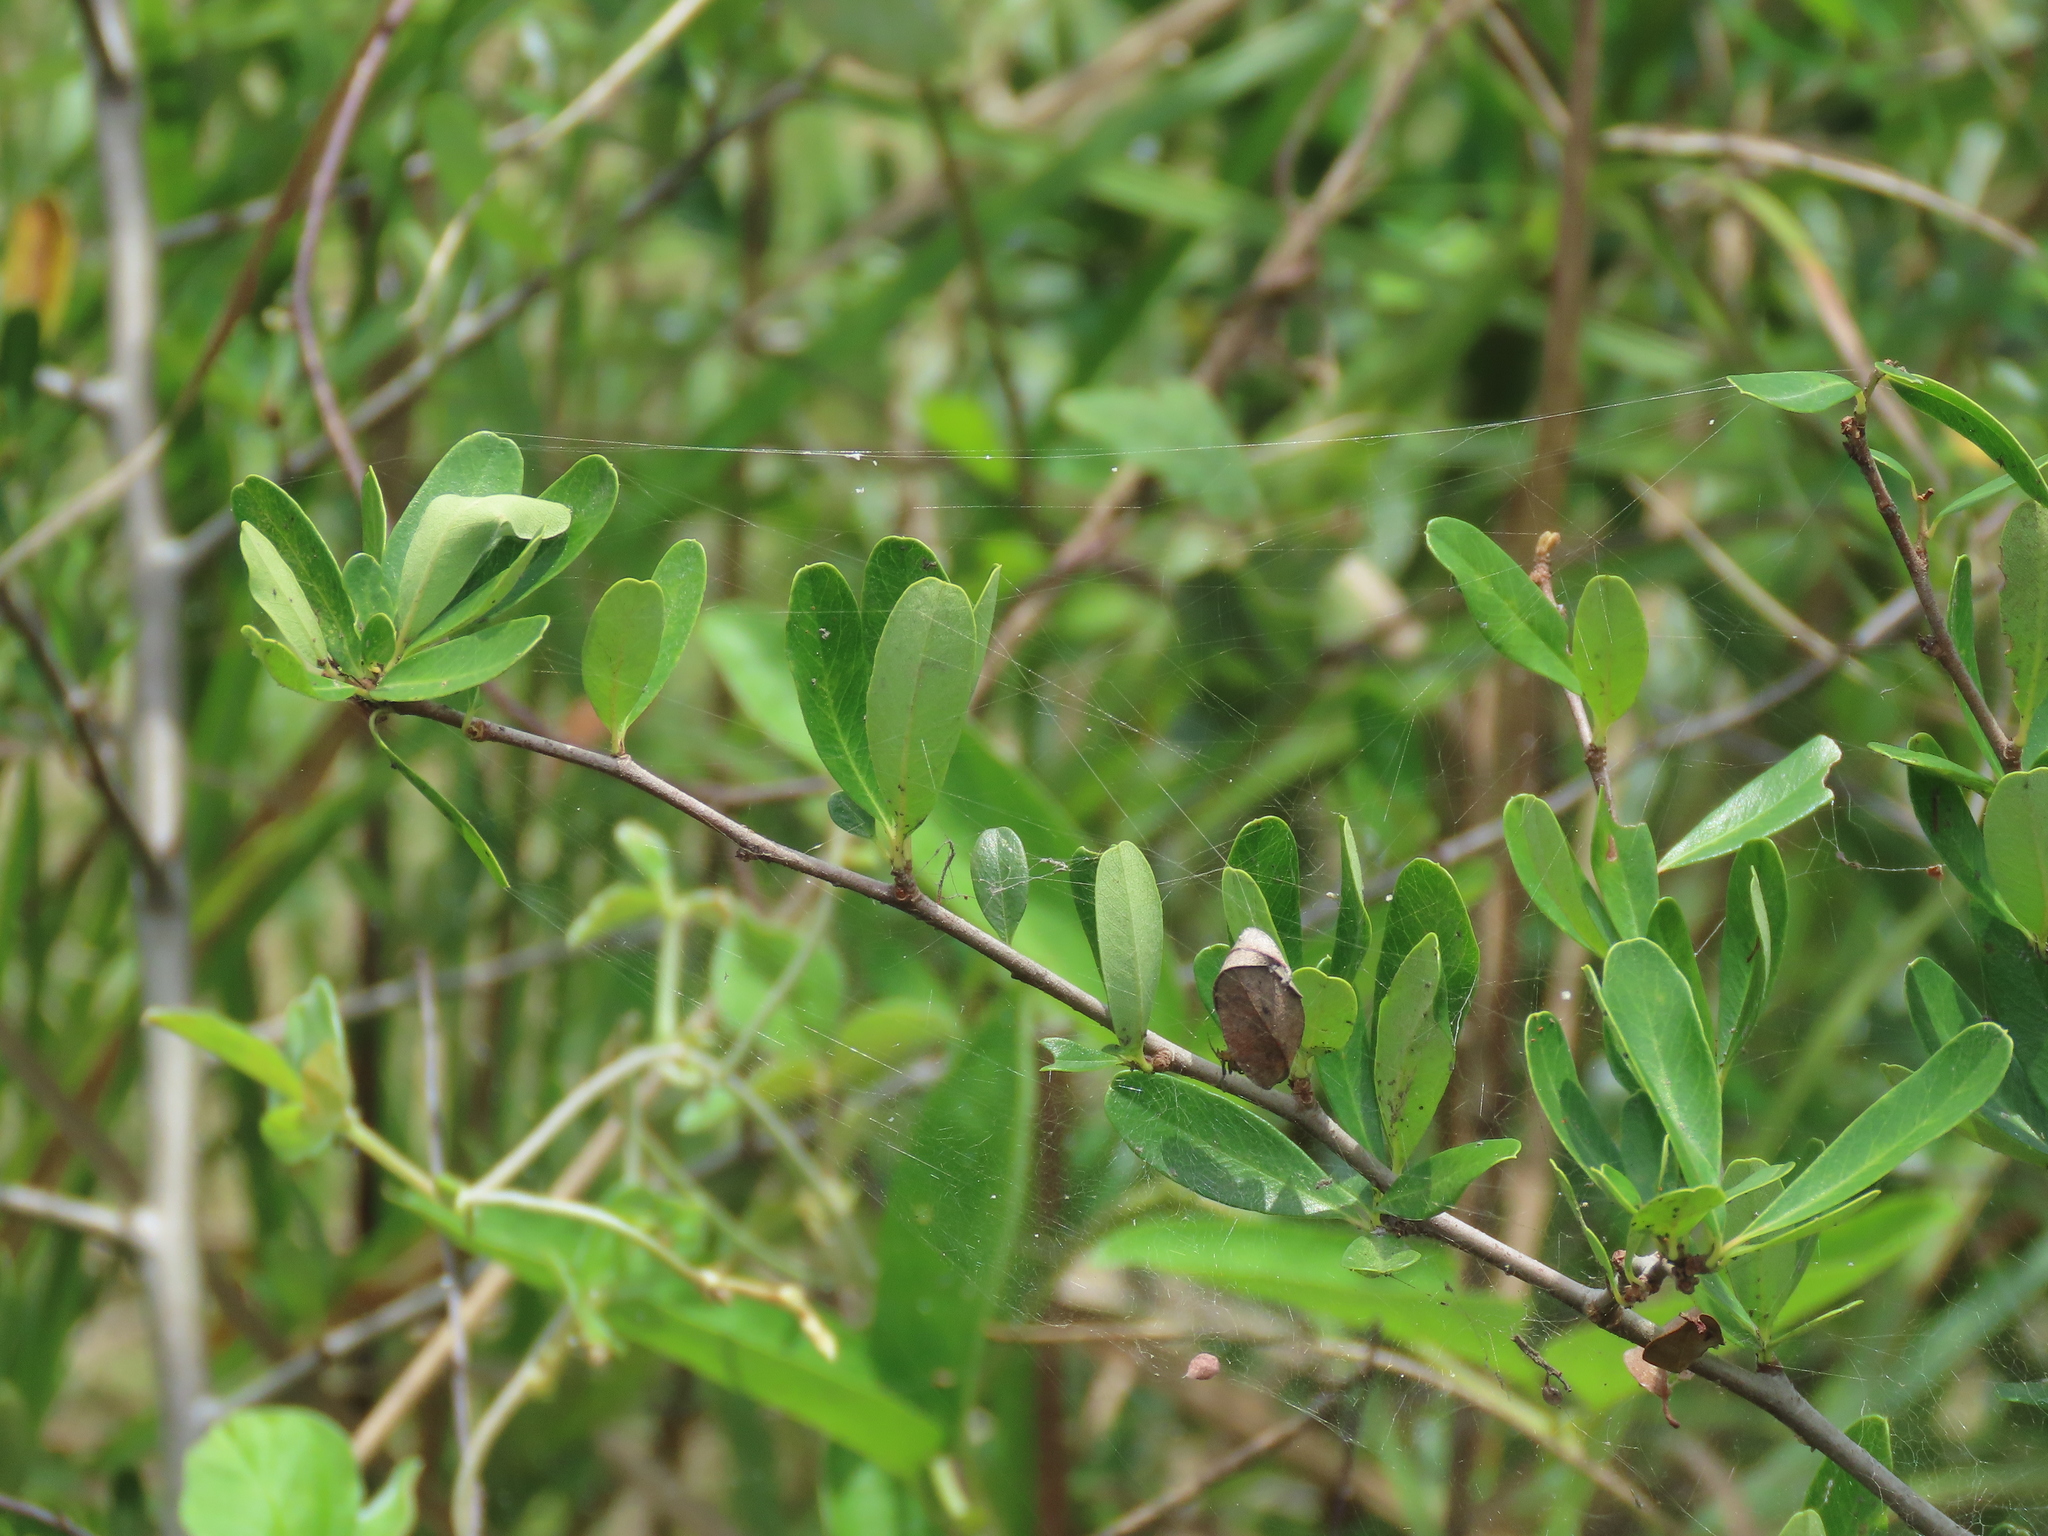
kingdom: Plantae
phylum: Tracheophyta
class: Magnoliopsida
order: Rosales
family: Rosaceae
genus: Pyracantha
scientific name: Pyracantha koidzumii
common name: Formosa firethorn
